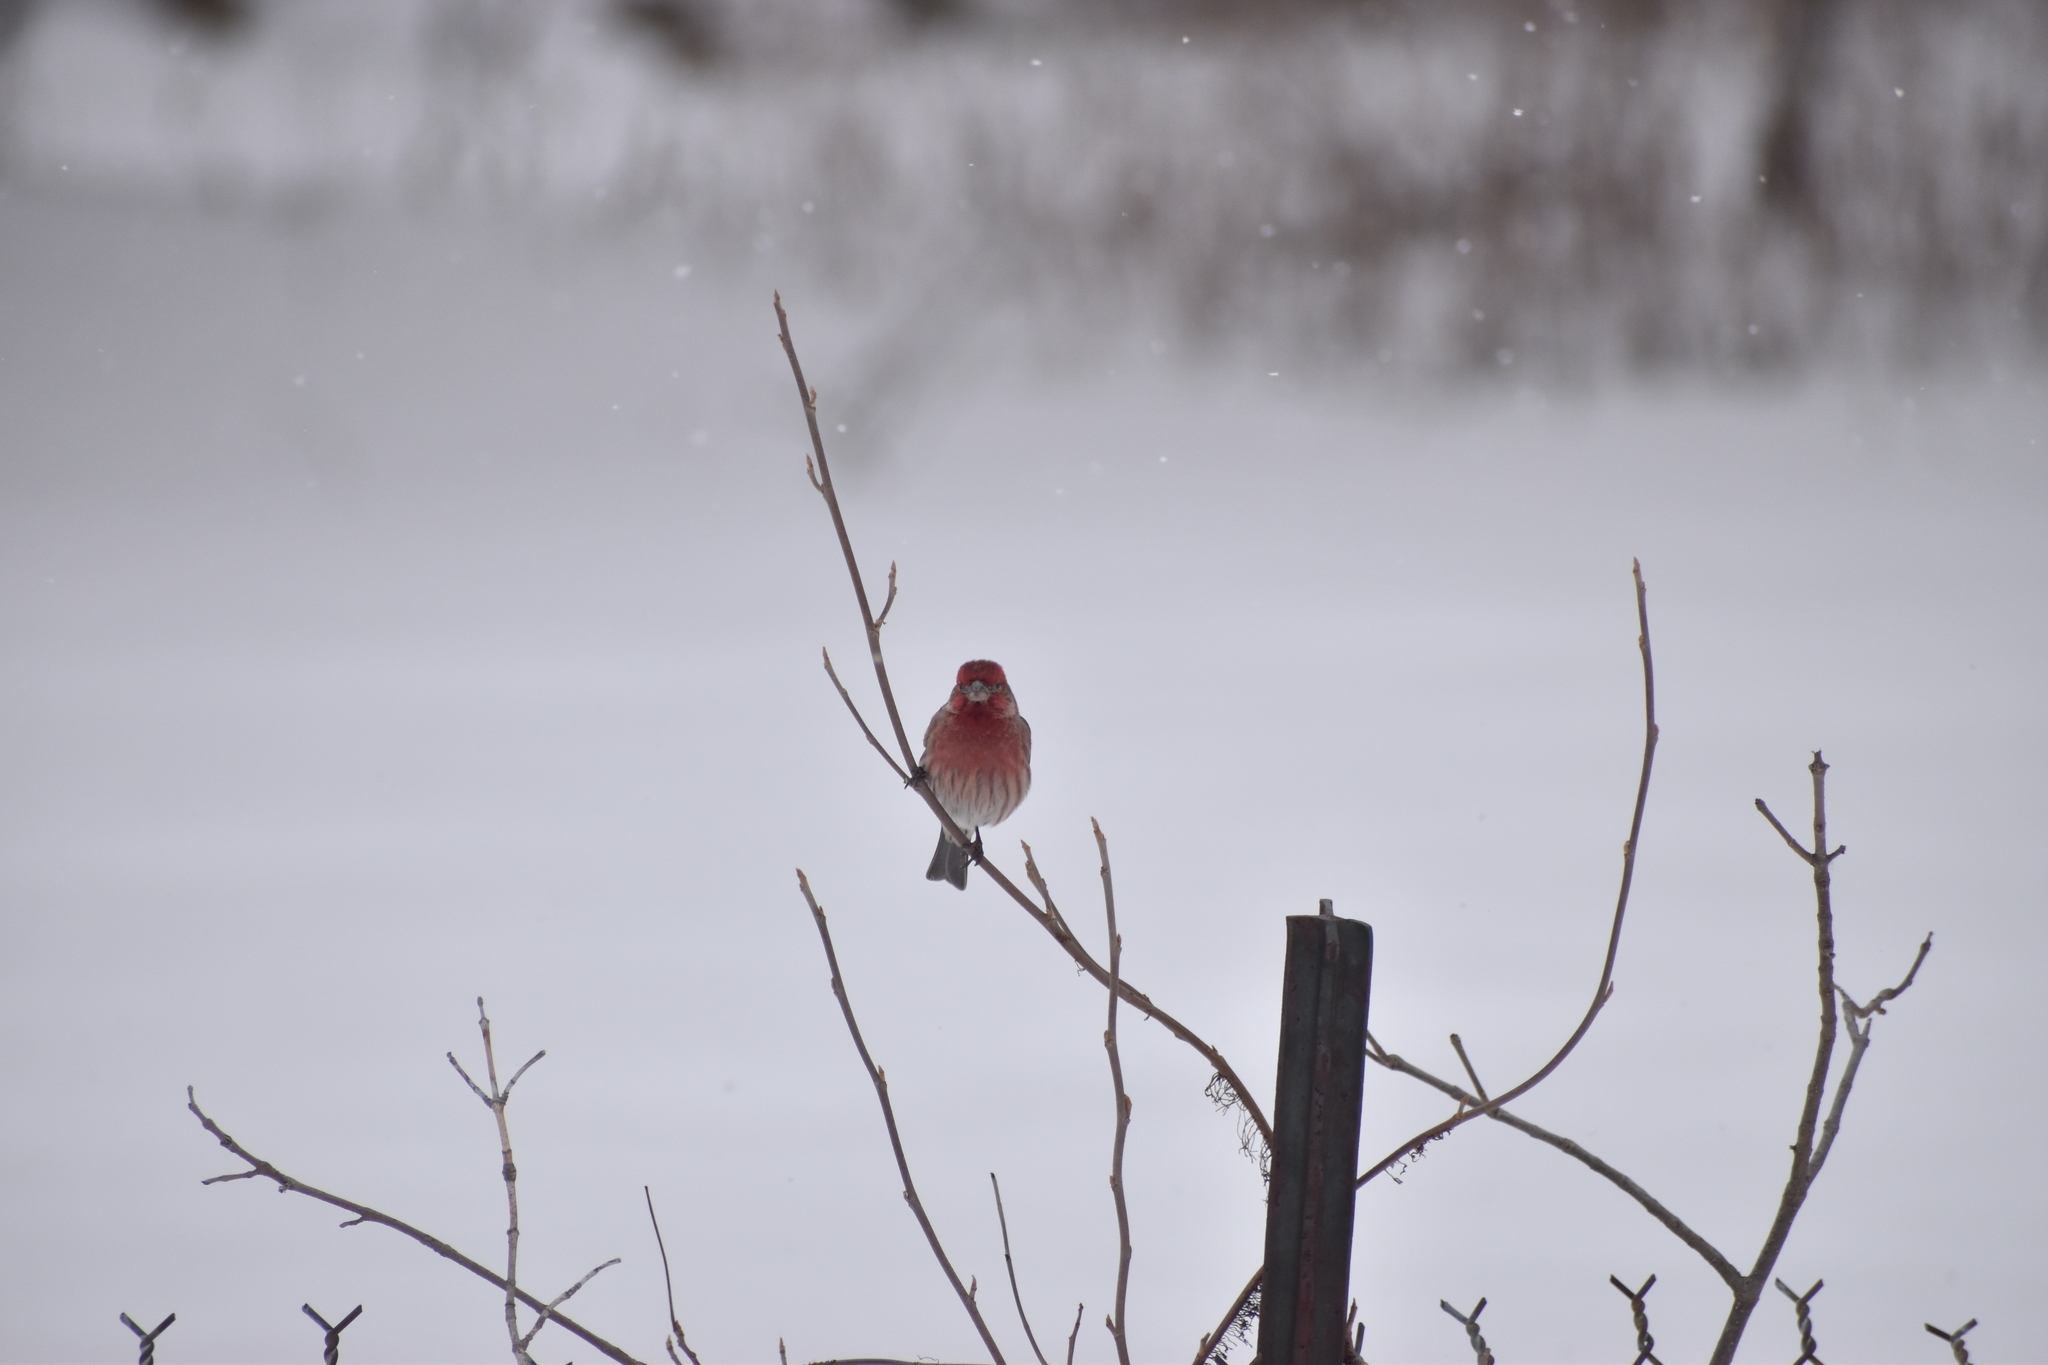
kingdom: Animalia
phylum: Chordata
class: Aves
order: Passeriformes
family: Fringillidae
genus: Haemorhous
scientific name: Haemorhous mexicanus
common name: House finch
